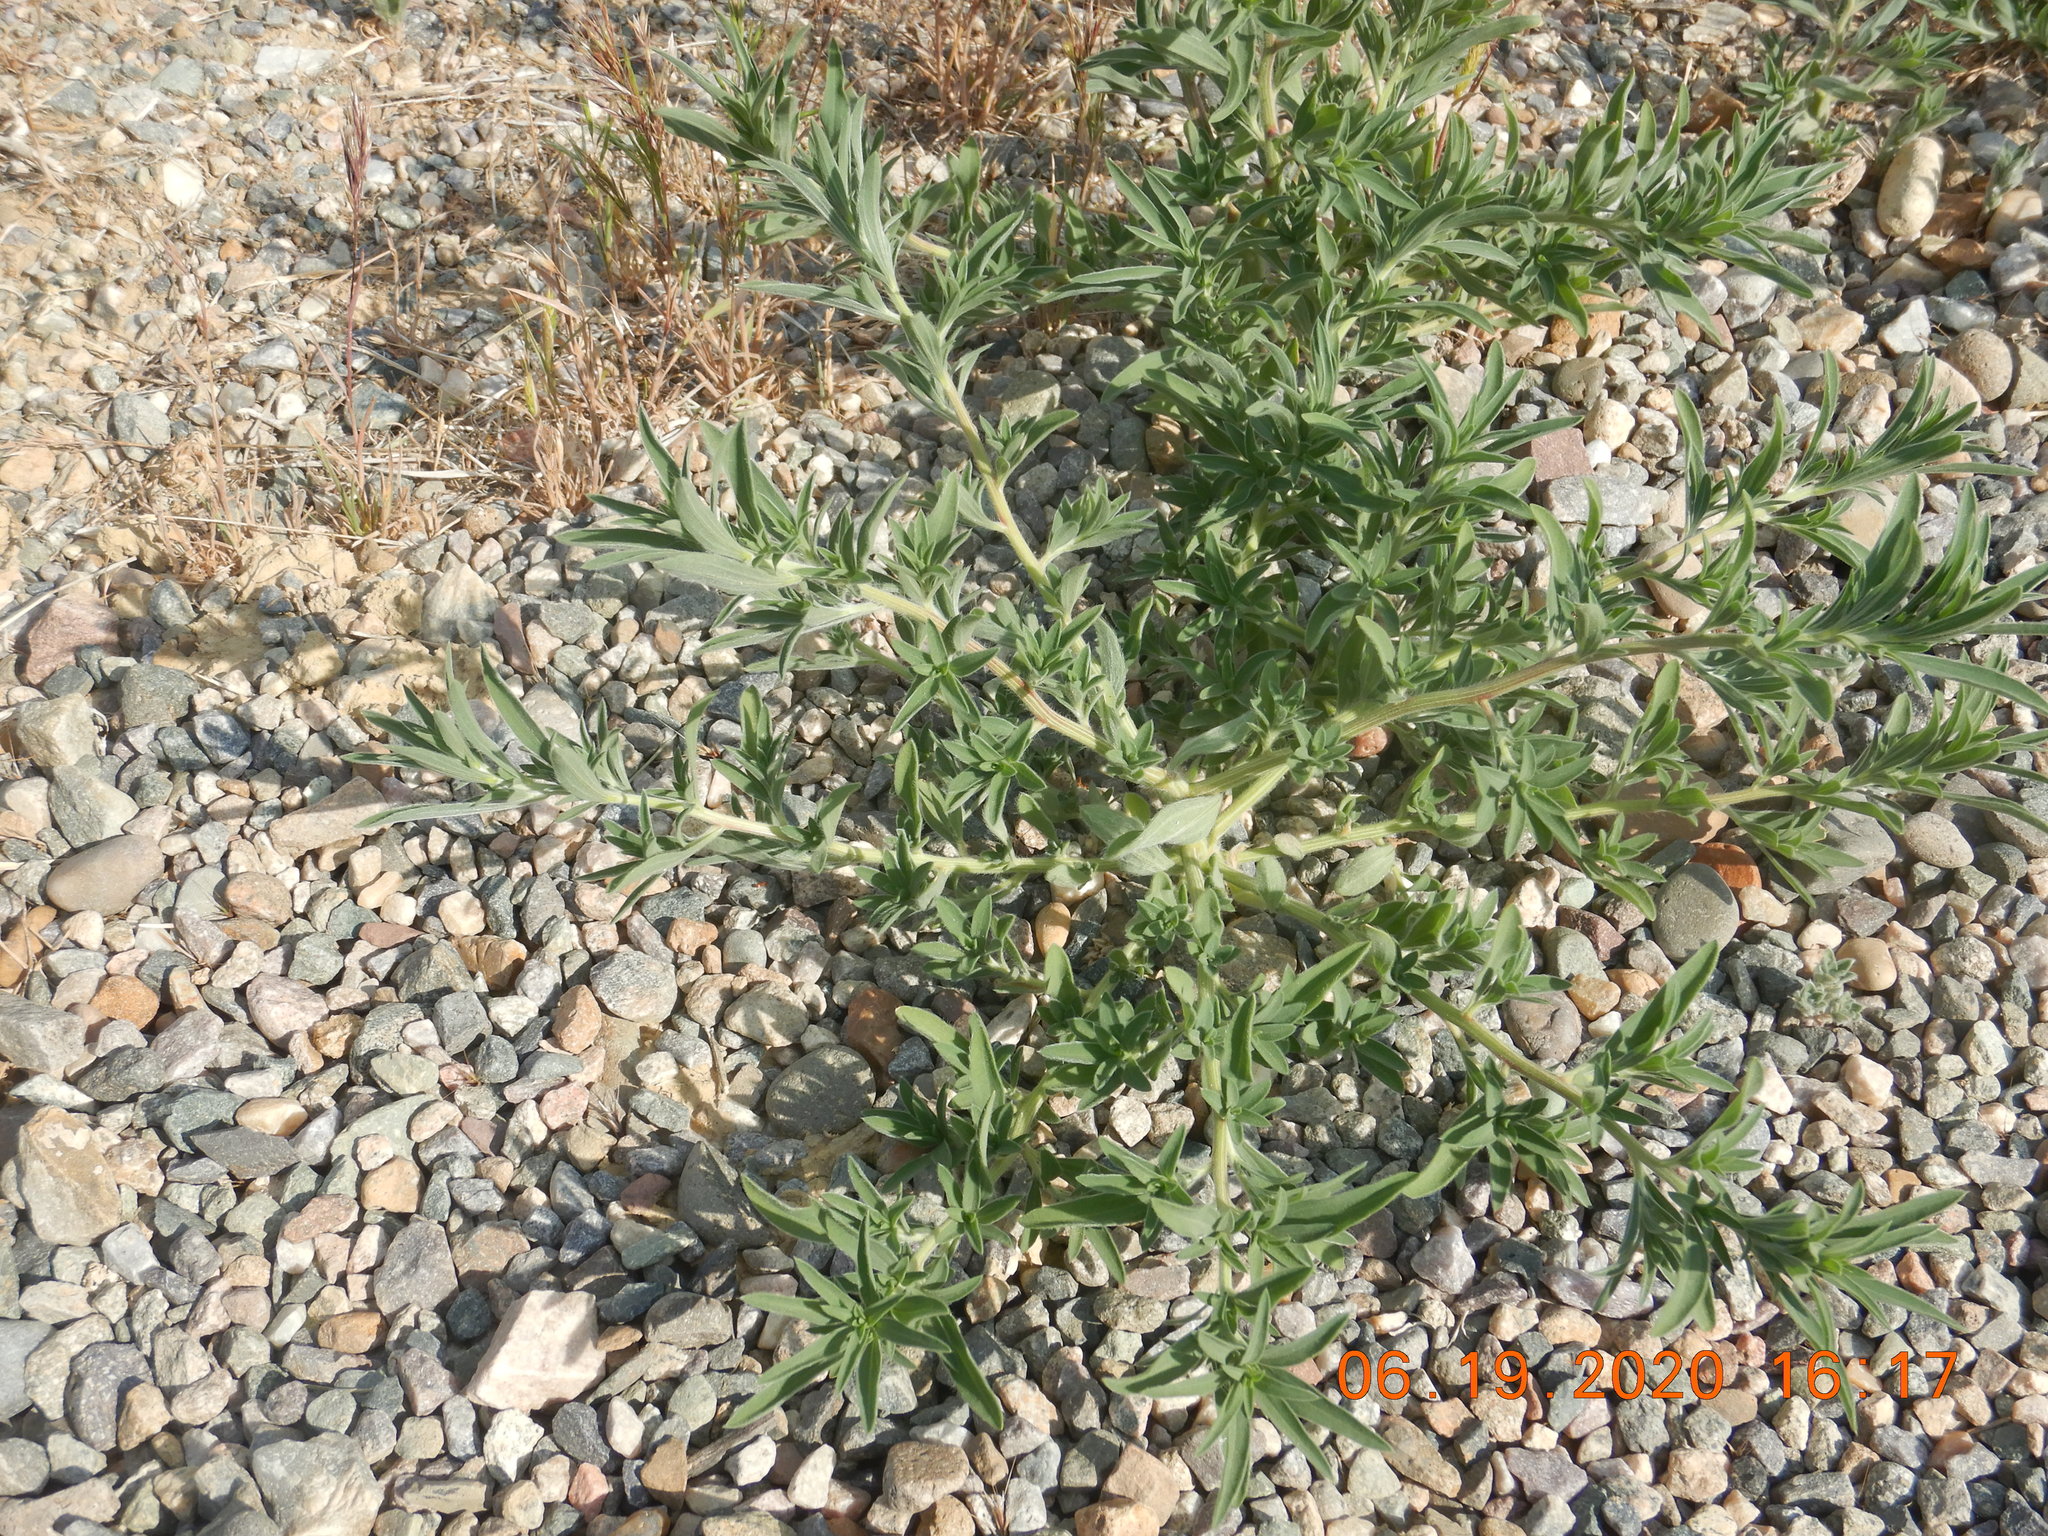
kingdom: Plantae
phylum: Tracheophyta
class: Magnoliopsida
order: Caryophyllales
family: Amaranthaceae
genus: Bassia
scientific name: Bassia scoparia
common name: Belvedere
